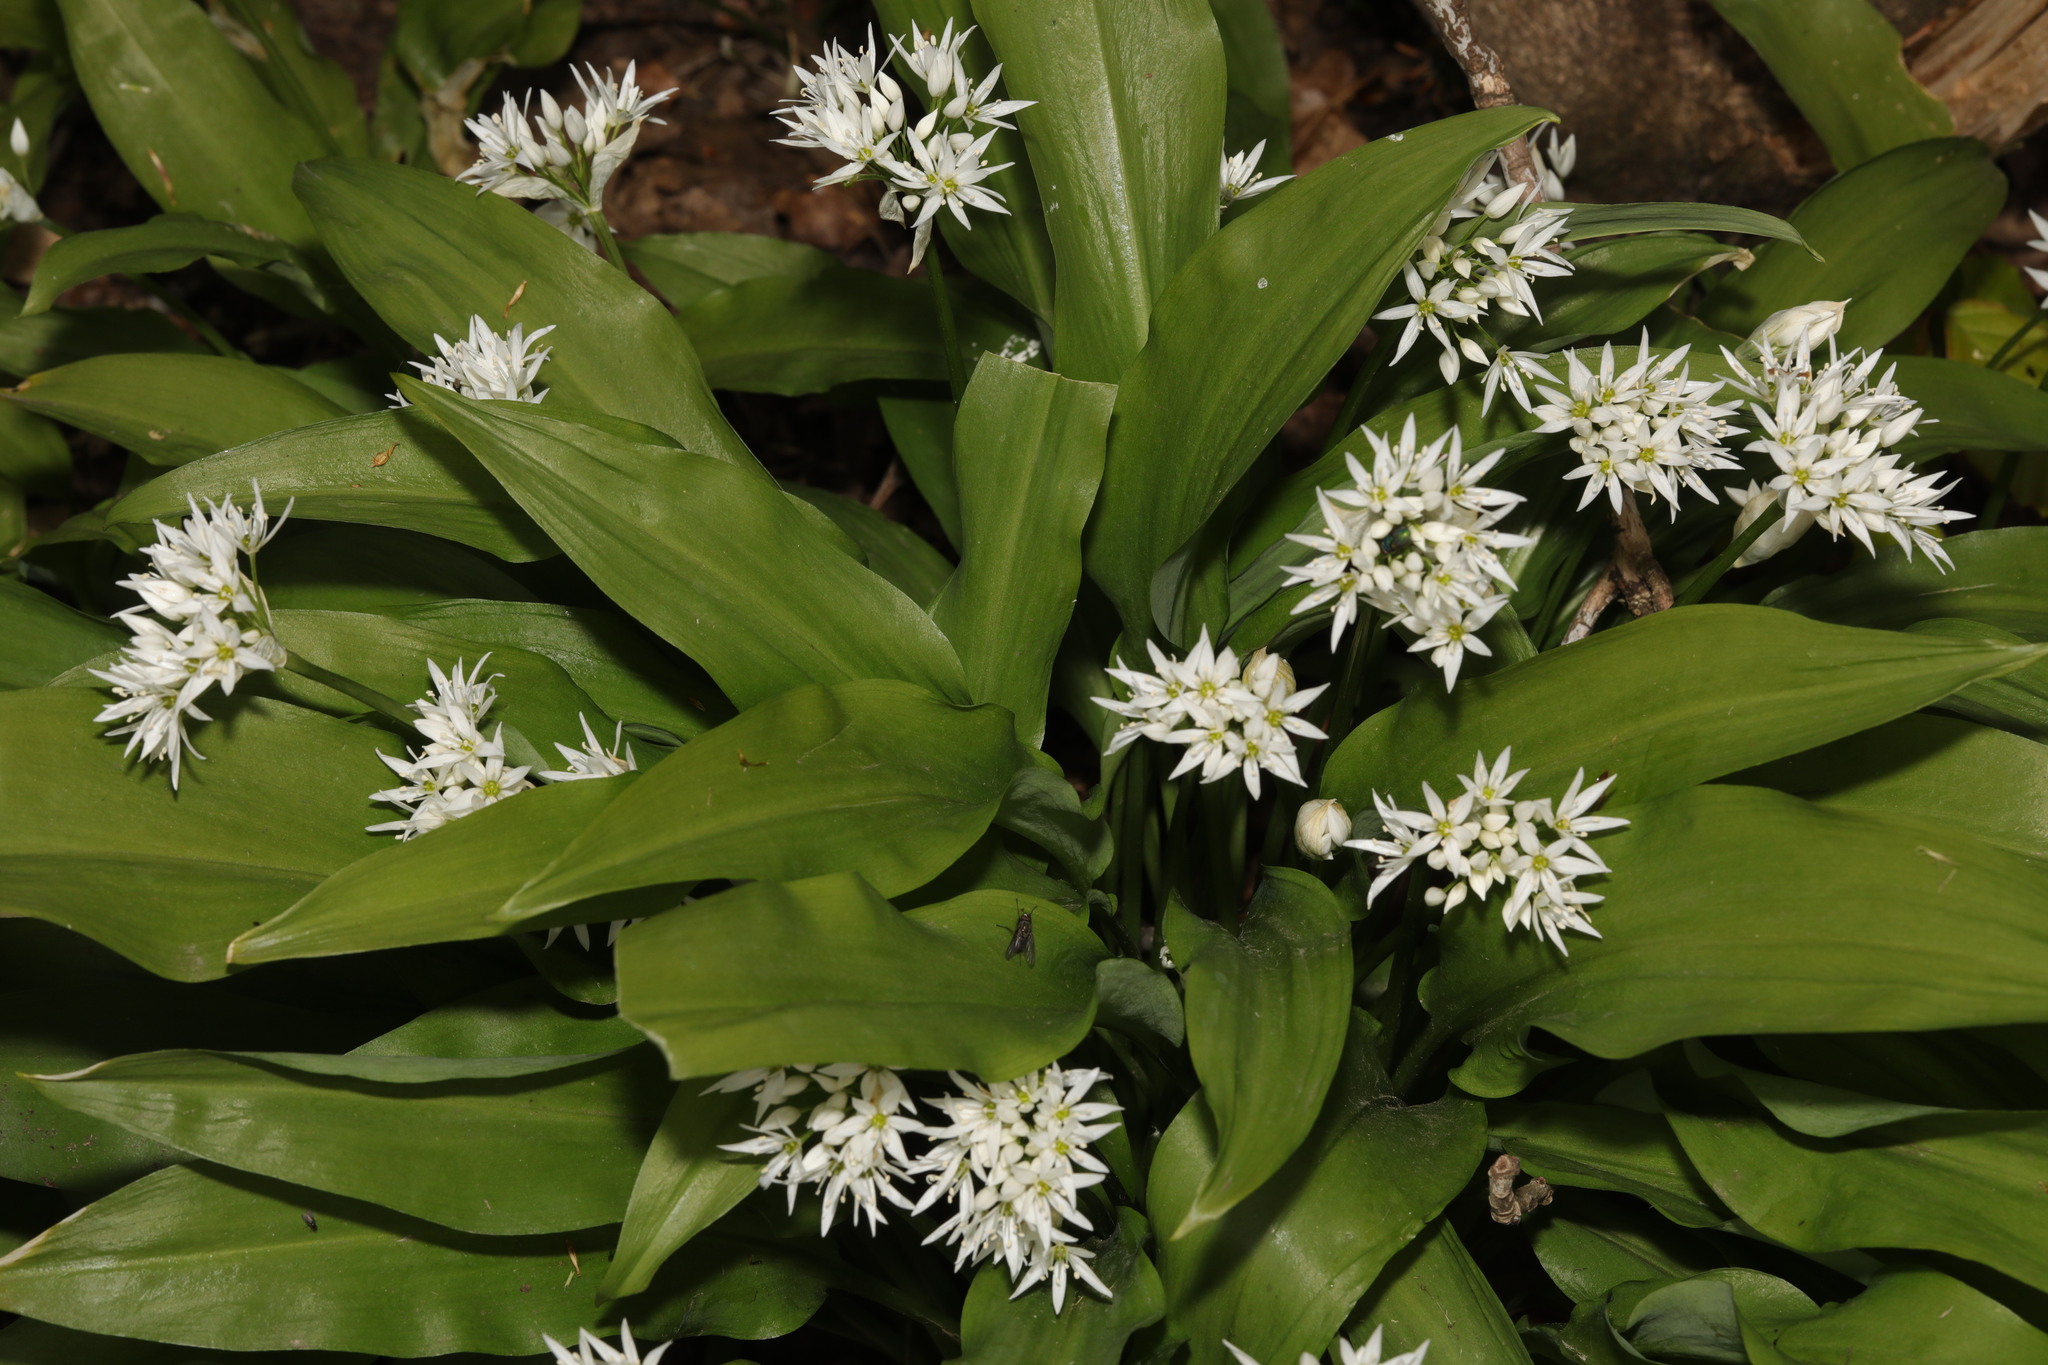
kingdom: Plantae
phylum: Tracheophyta
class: Liliopsida
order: Asparagales
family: Amaryllidaceae
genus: Allium
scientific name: Allium ursinum
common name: Ramsons
